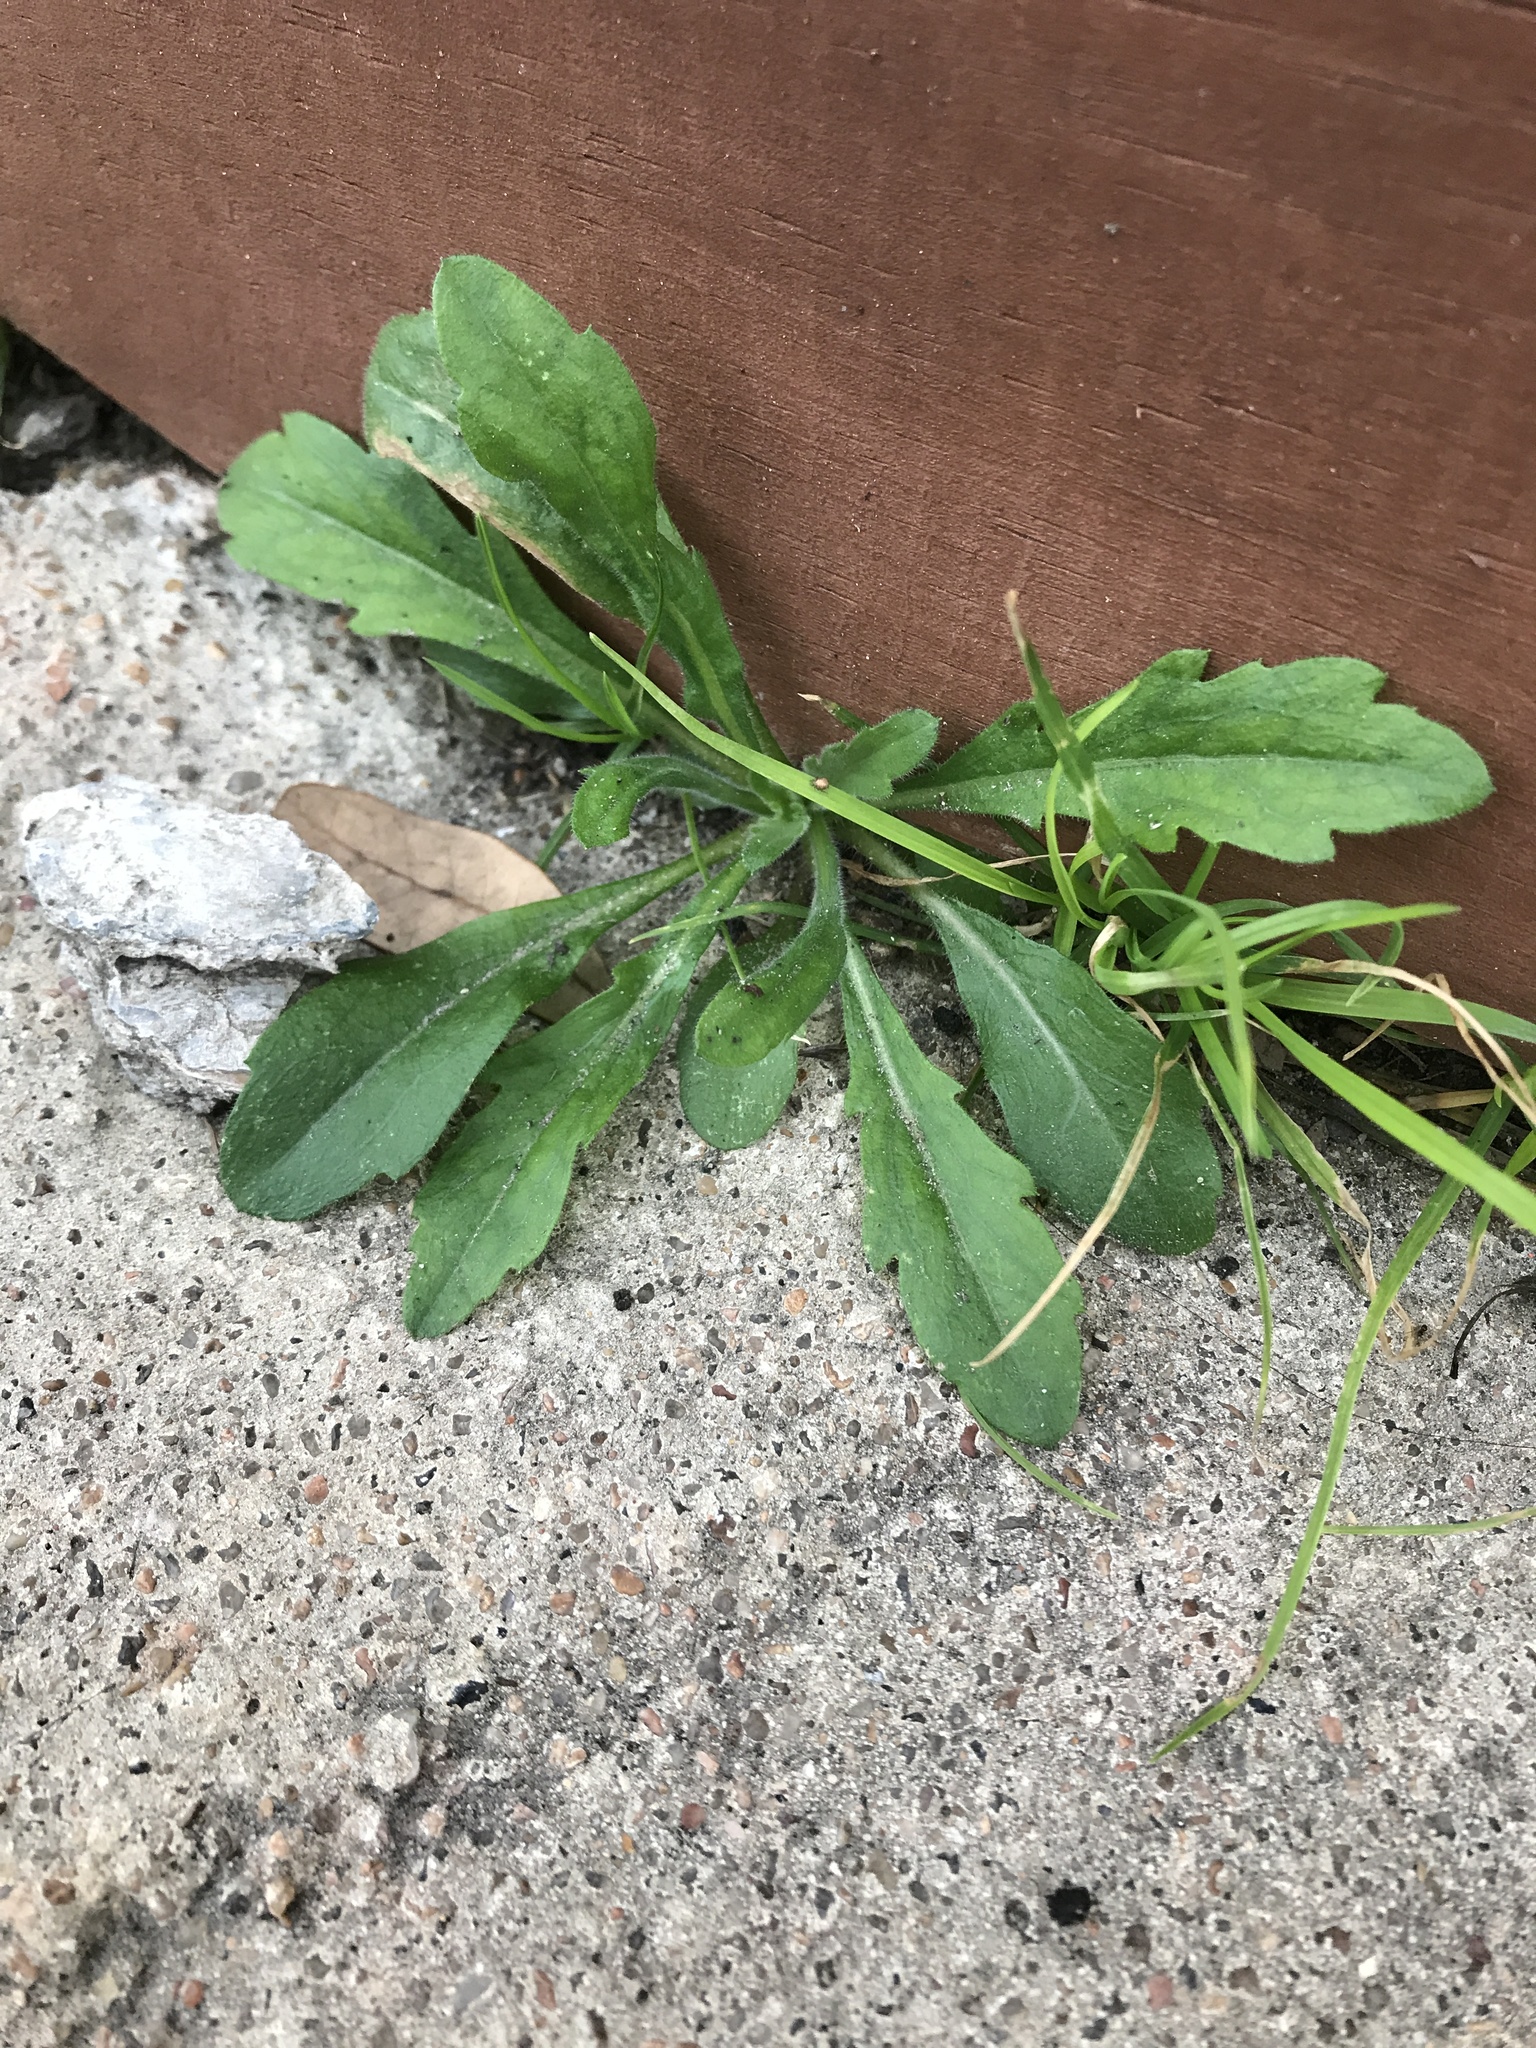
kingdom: Plantae
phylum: Tracheophyta
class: Magnoliopsida
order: Asterales
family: Asteraceae
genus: Erigeron
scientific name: Erigeron canadensis
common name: Canadian fleabane
